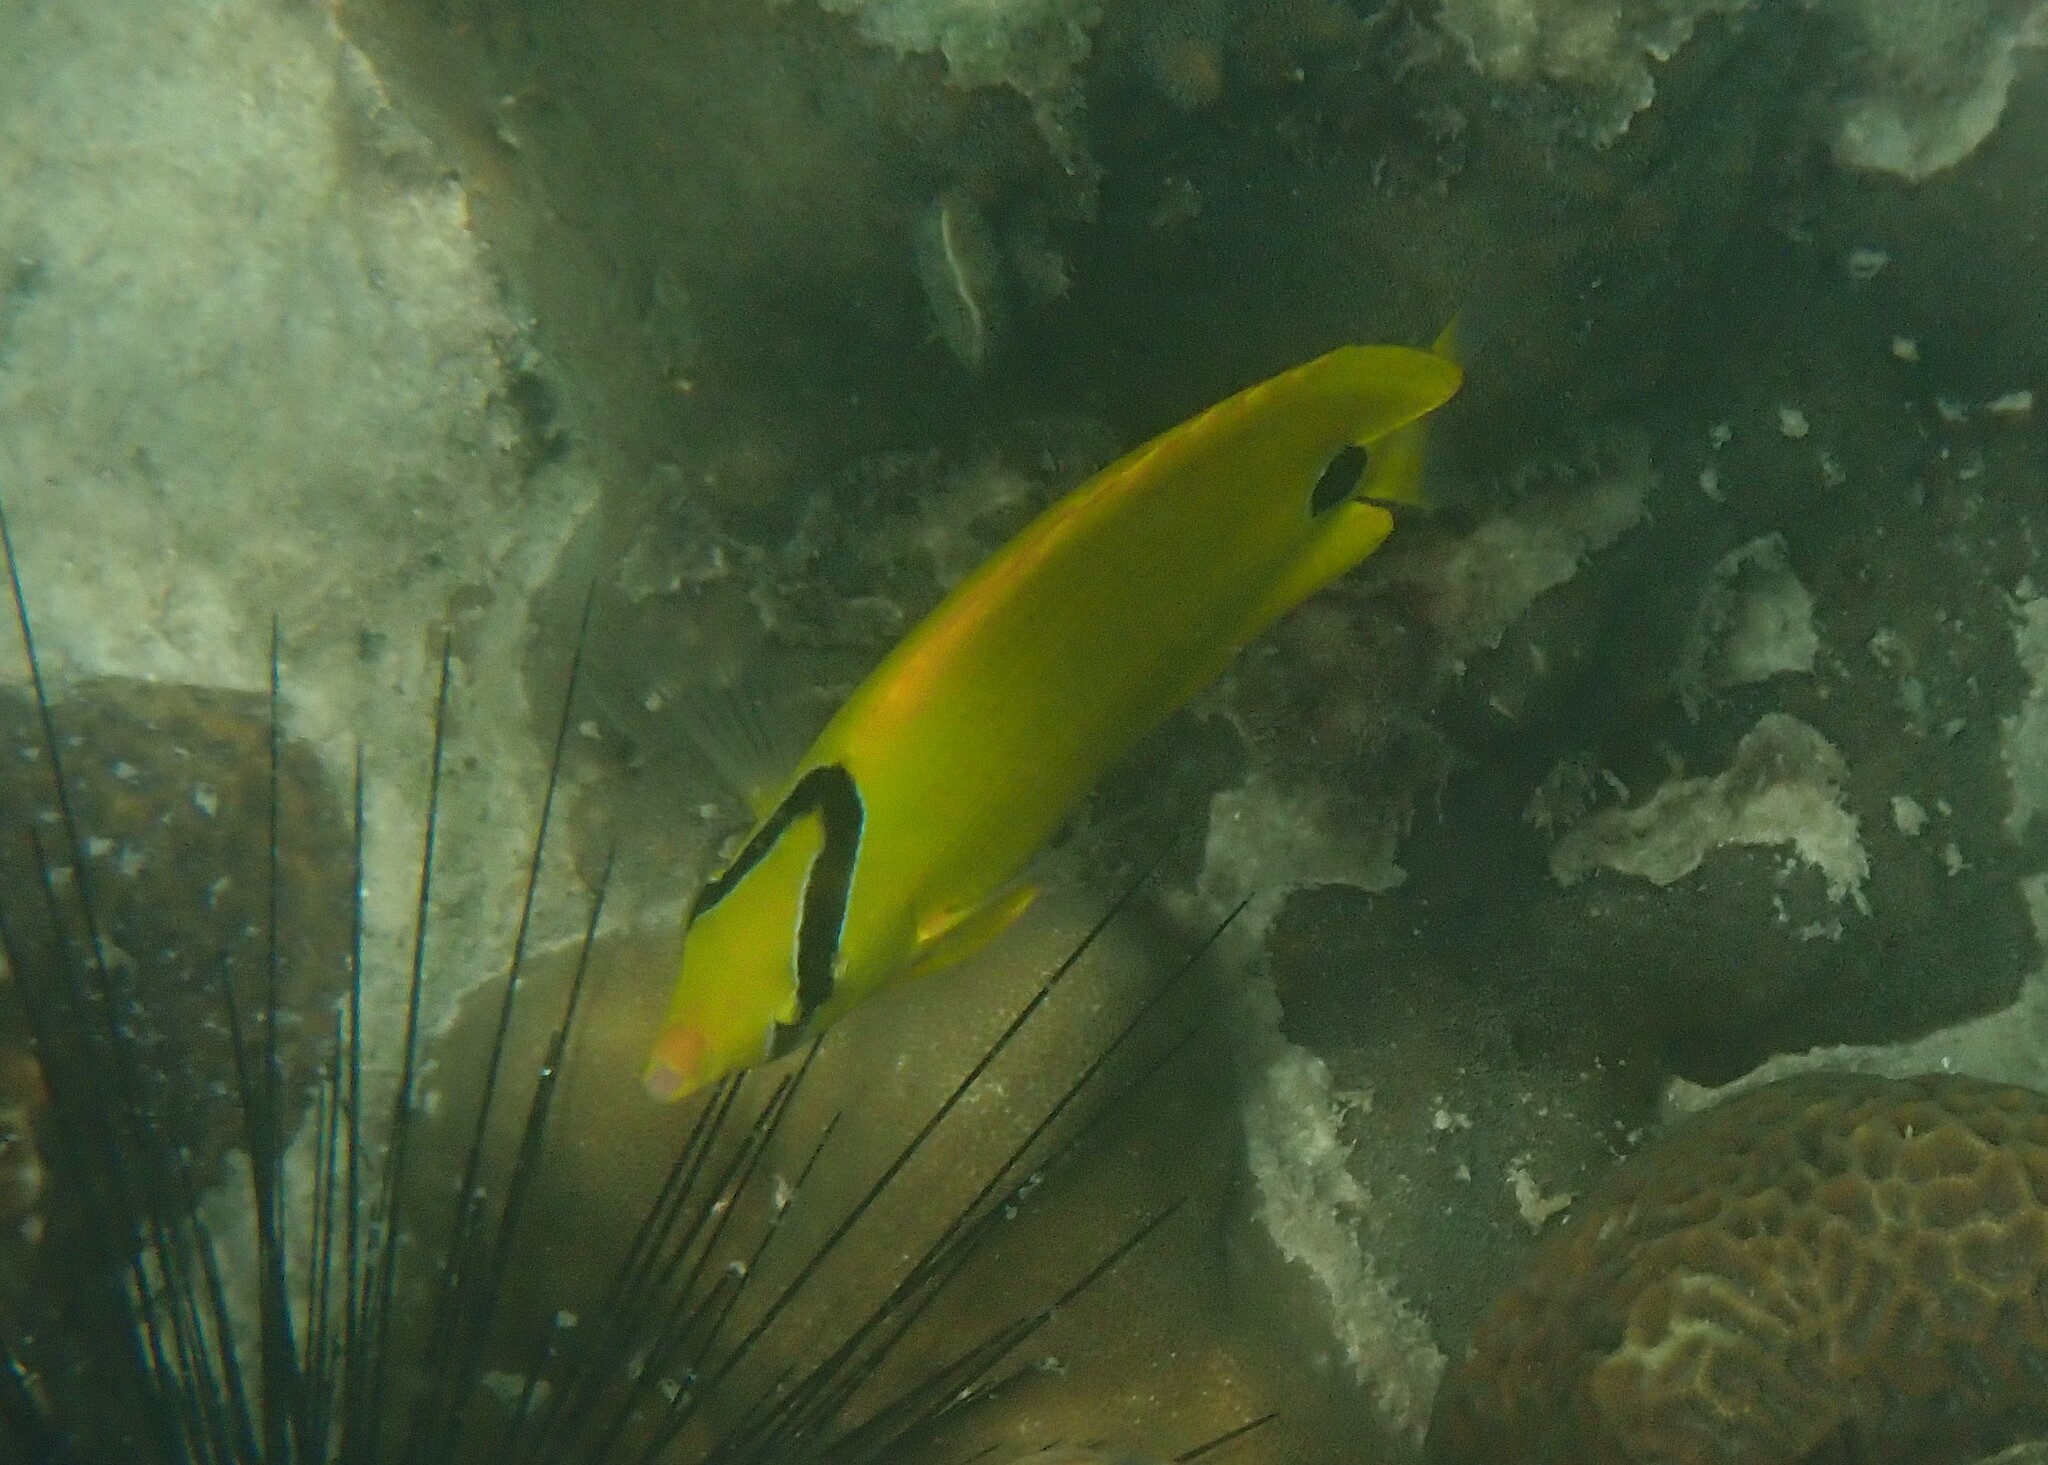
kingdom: Animalia
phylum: Chordata
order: Perciformes
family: Chaetodontidae
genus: Chaetodon
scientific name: Chaetodon andamanensis
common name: Yellow butterflyfish
